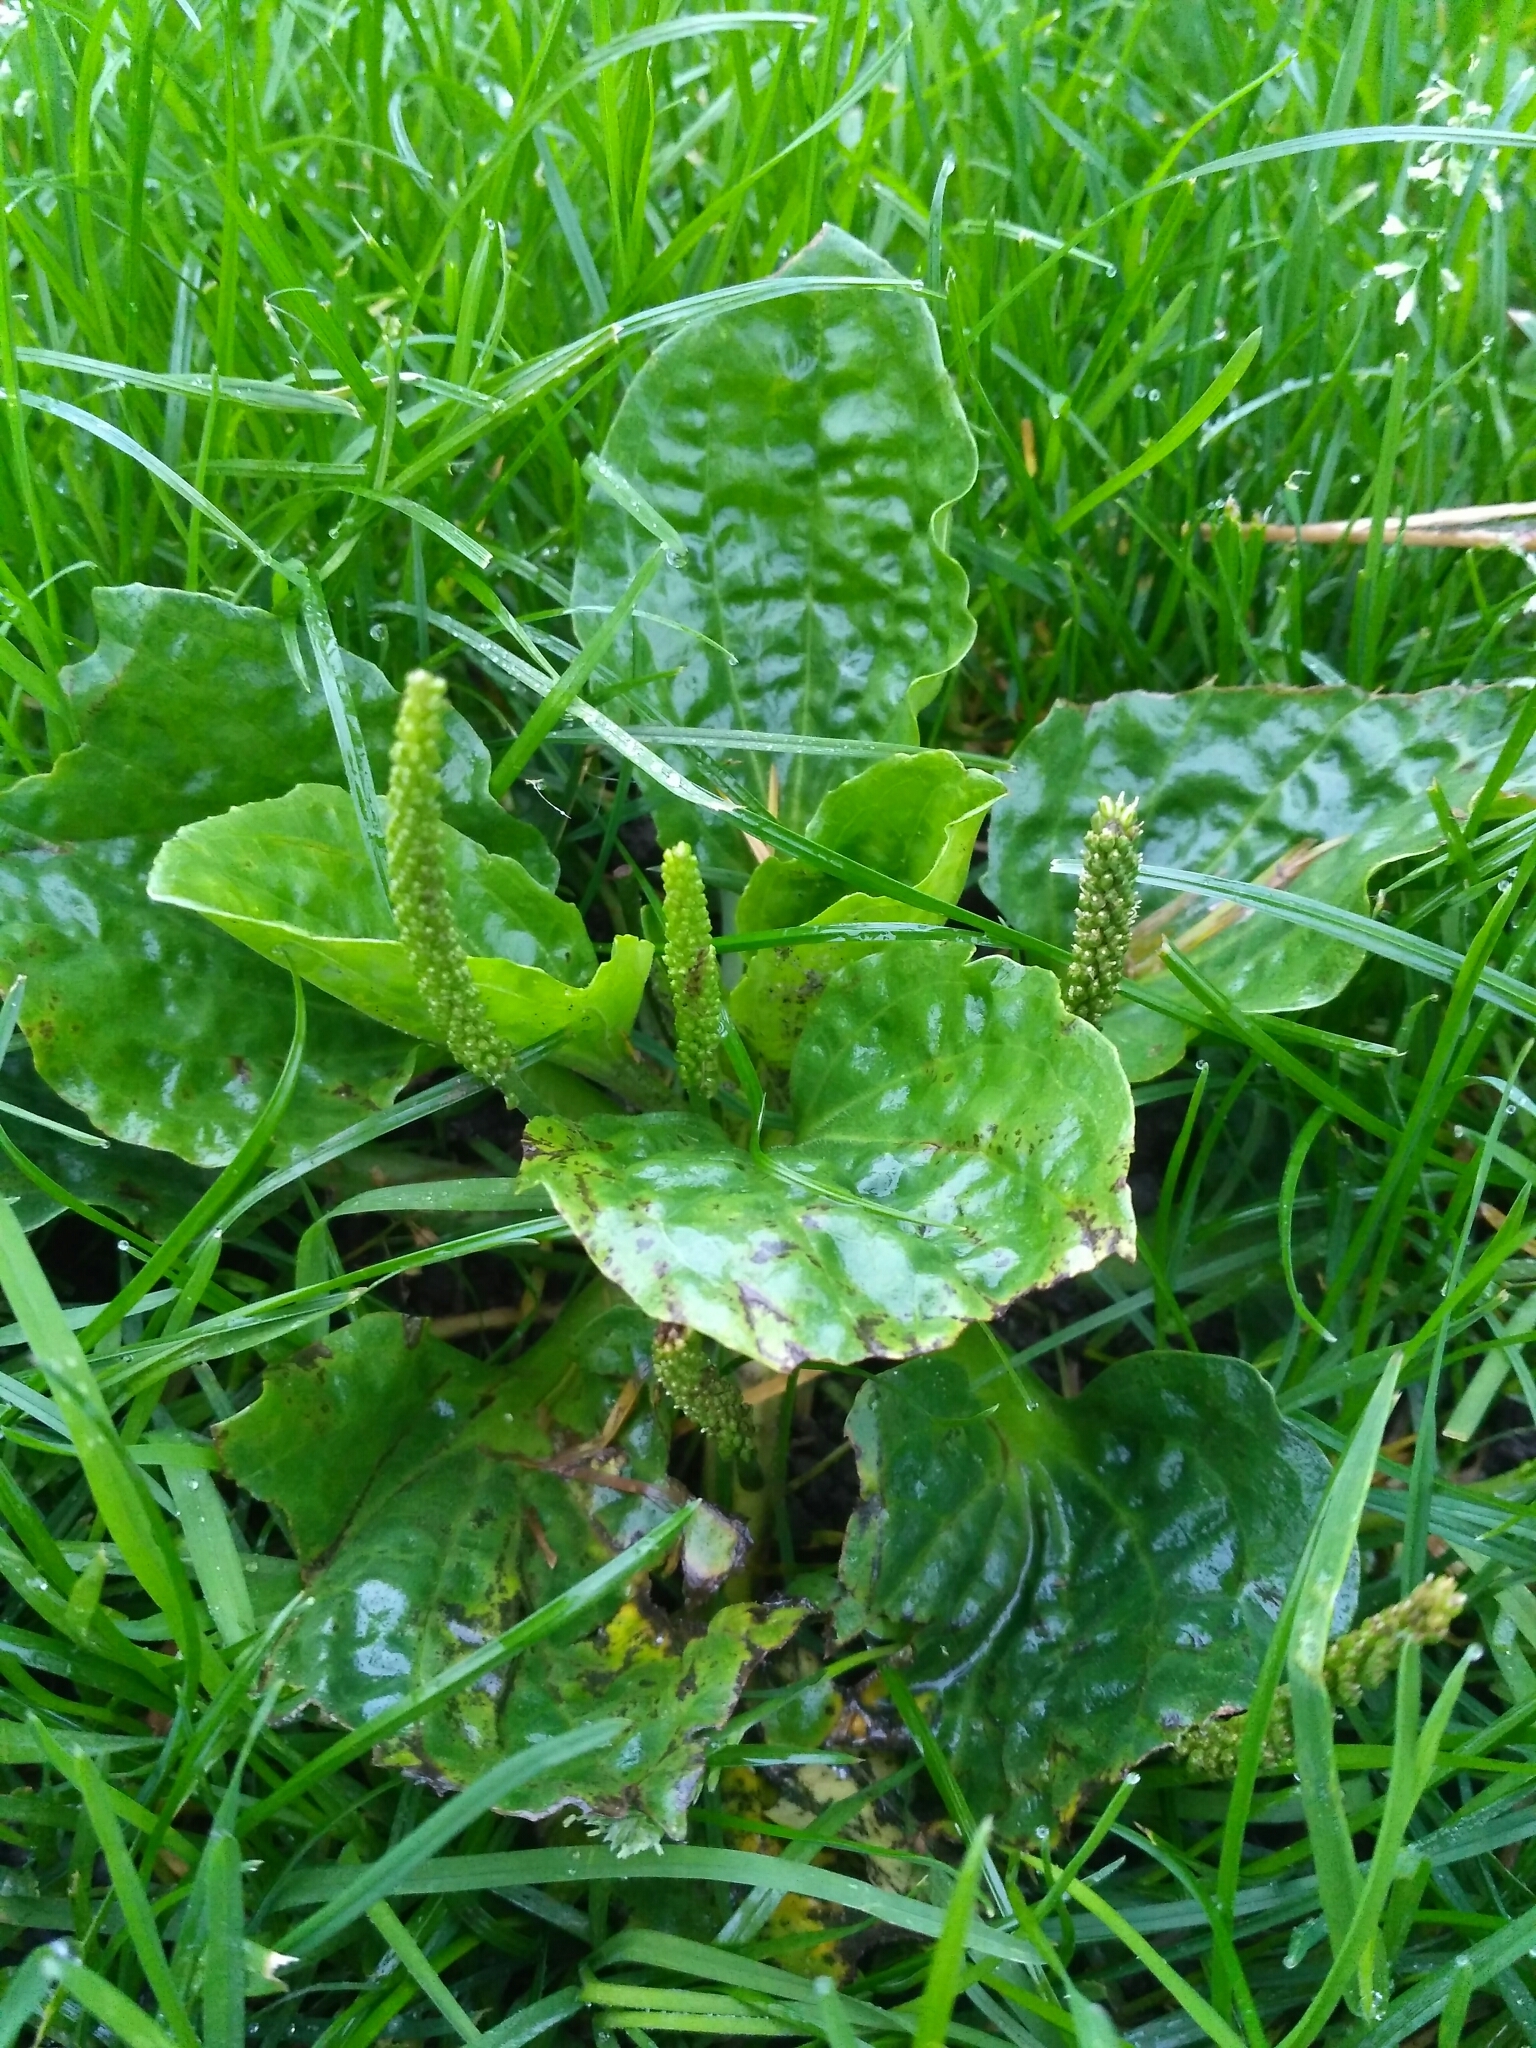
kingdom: Plantae
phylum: Tracheophyta
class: Magnoliopsida
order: Lamiales
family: Plantaginaceae
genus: Plantago
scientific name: Plantago major
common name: Common plantain
